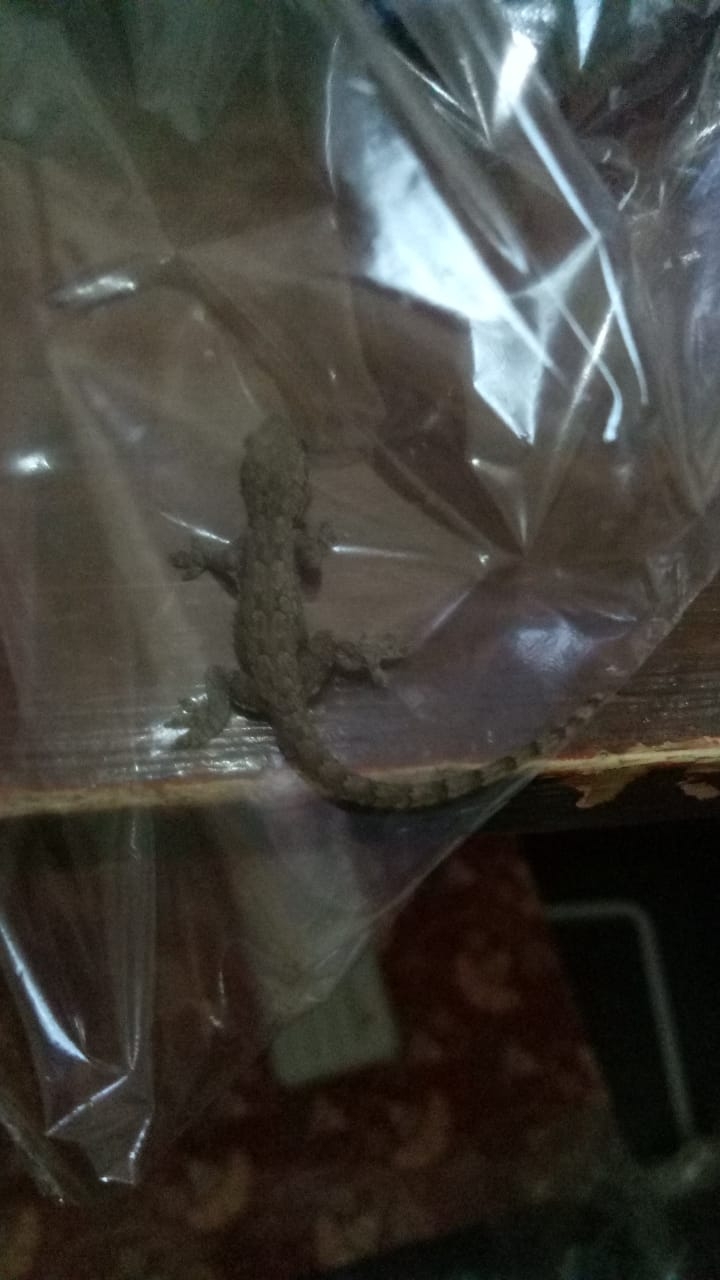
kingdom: Animalia
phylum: Chordata
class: Squamata
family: Gekkonidae
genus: Hemidactylus
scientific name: Hemidactylus platyurus
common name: Flat-tailed house gecko
